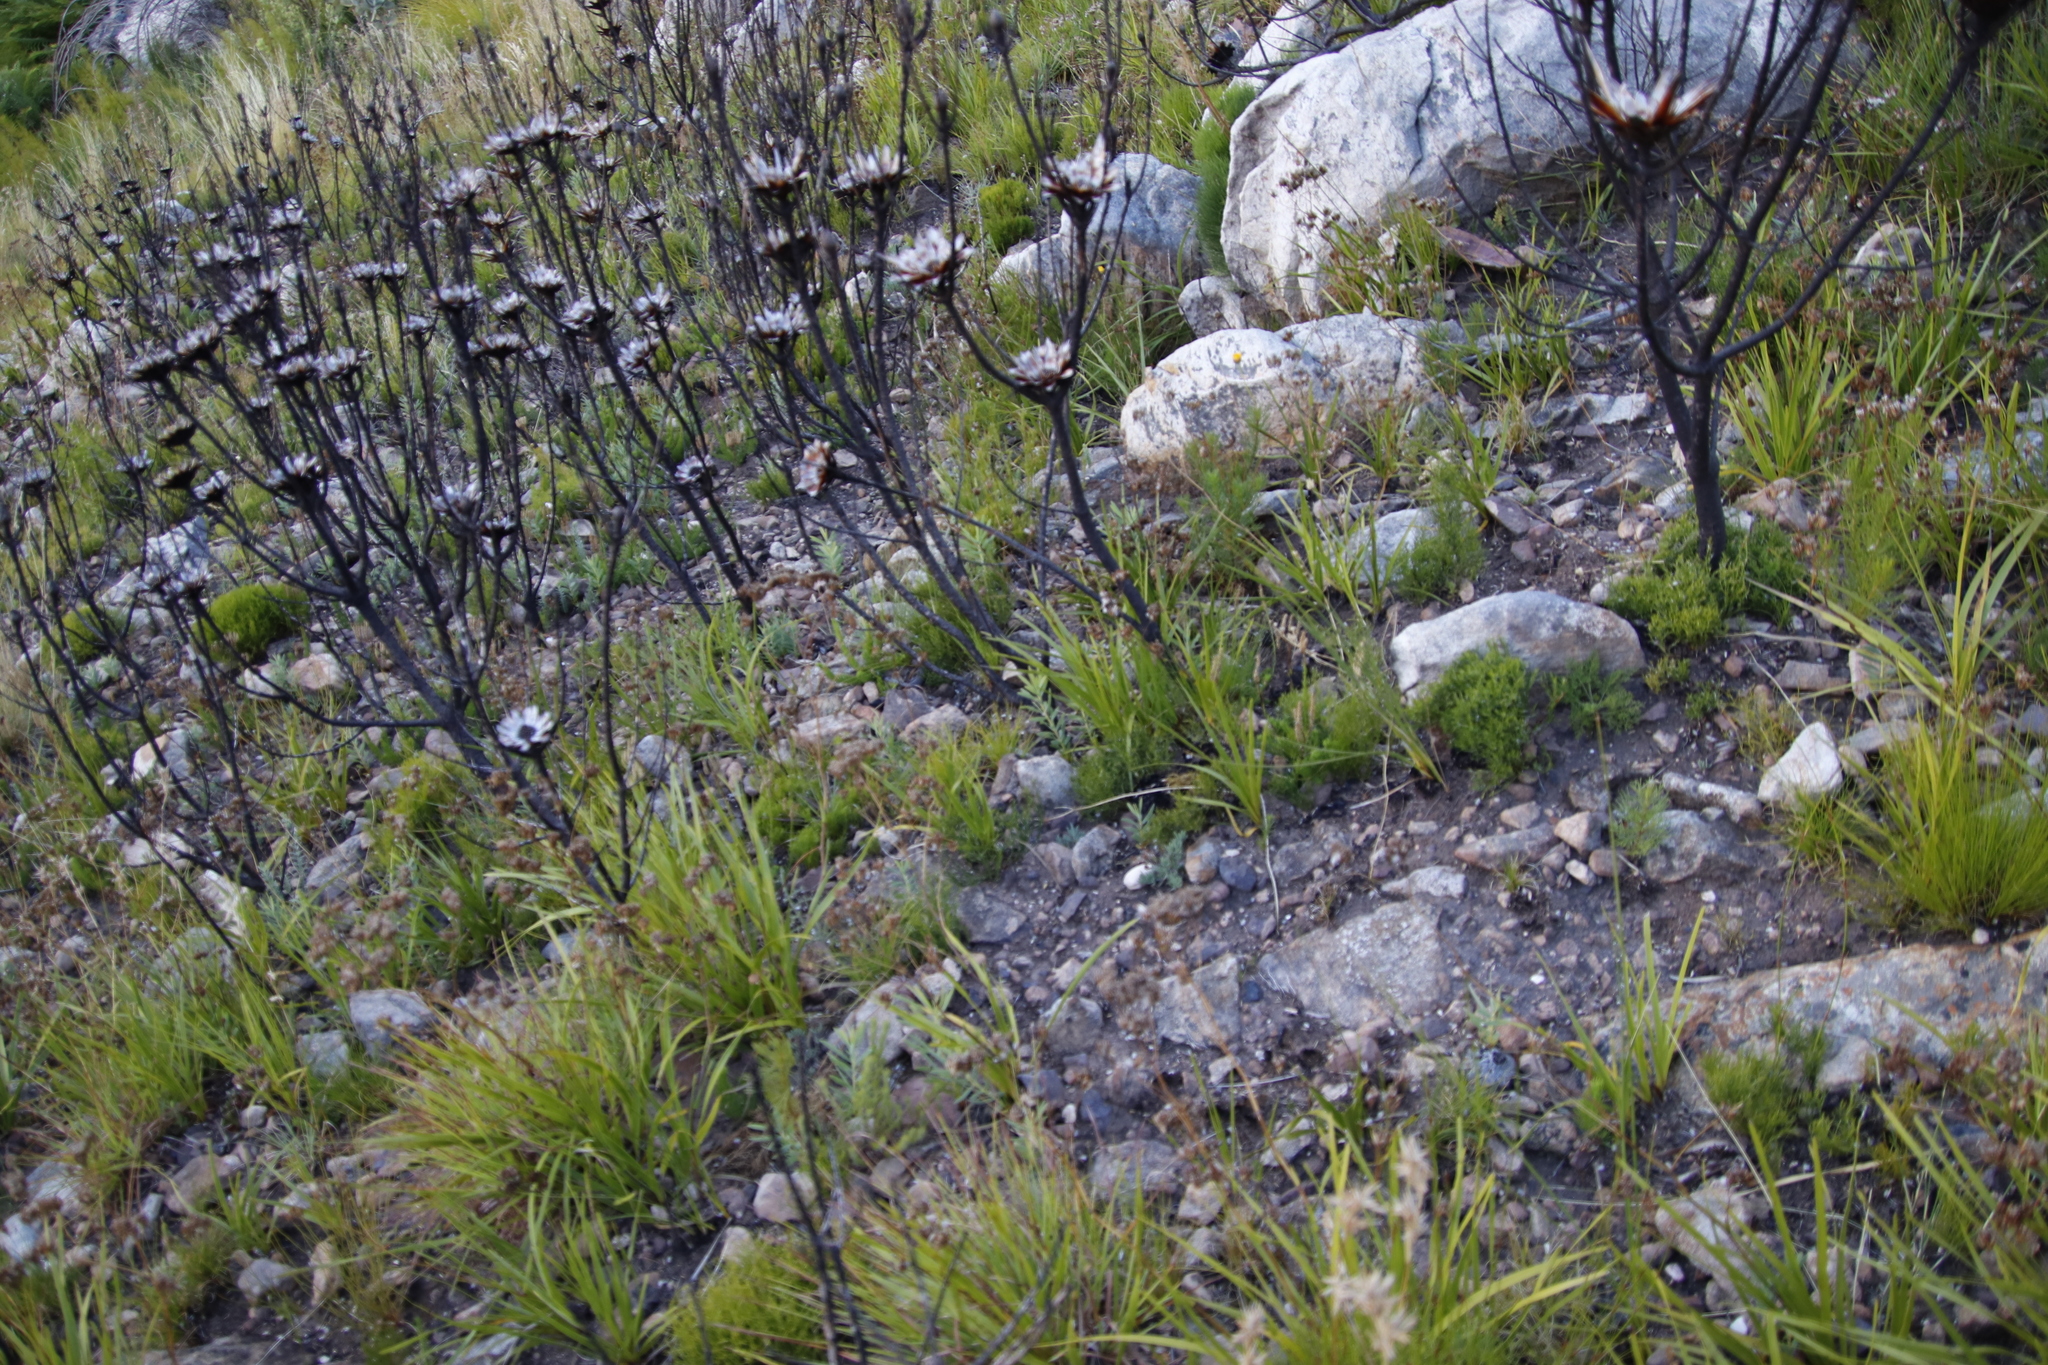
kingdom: Plantae
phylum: Tracheophyta
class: Magnoliopsida
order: Proteales
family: Proteaceae
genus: Protea
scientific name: Protea repens
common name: Sugarbush
